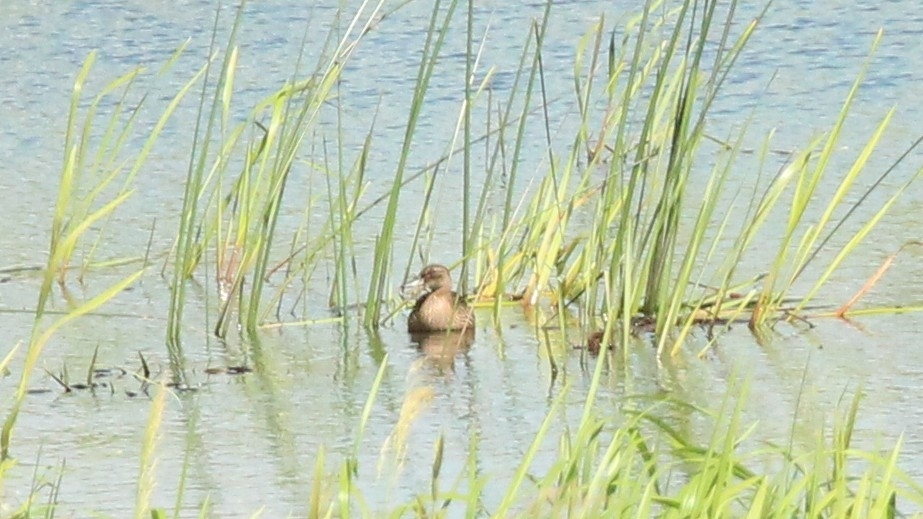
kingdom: Animalia
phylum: Chordata
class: Aves
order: Anseriformes
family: Anatidae
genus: Spatula
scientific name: Spatula querquedula
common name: Garganey
